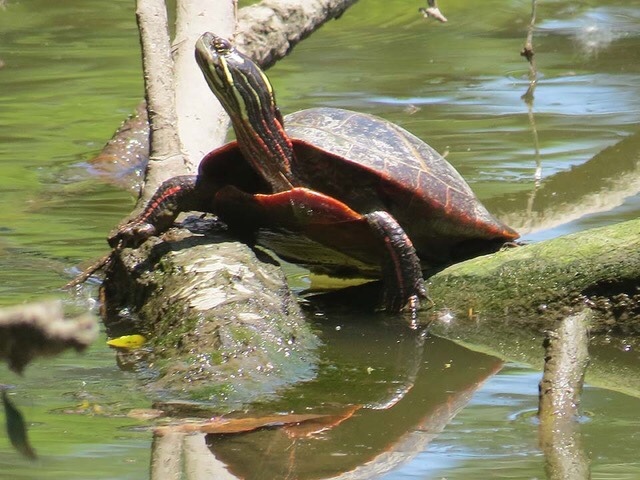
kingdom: Animalia
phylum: Chordata
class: Testudines
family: Emydidae
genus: Chrysemys
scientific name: Chrysemys picta
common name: Painted turtle
